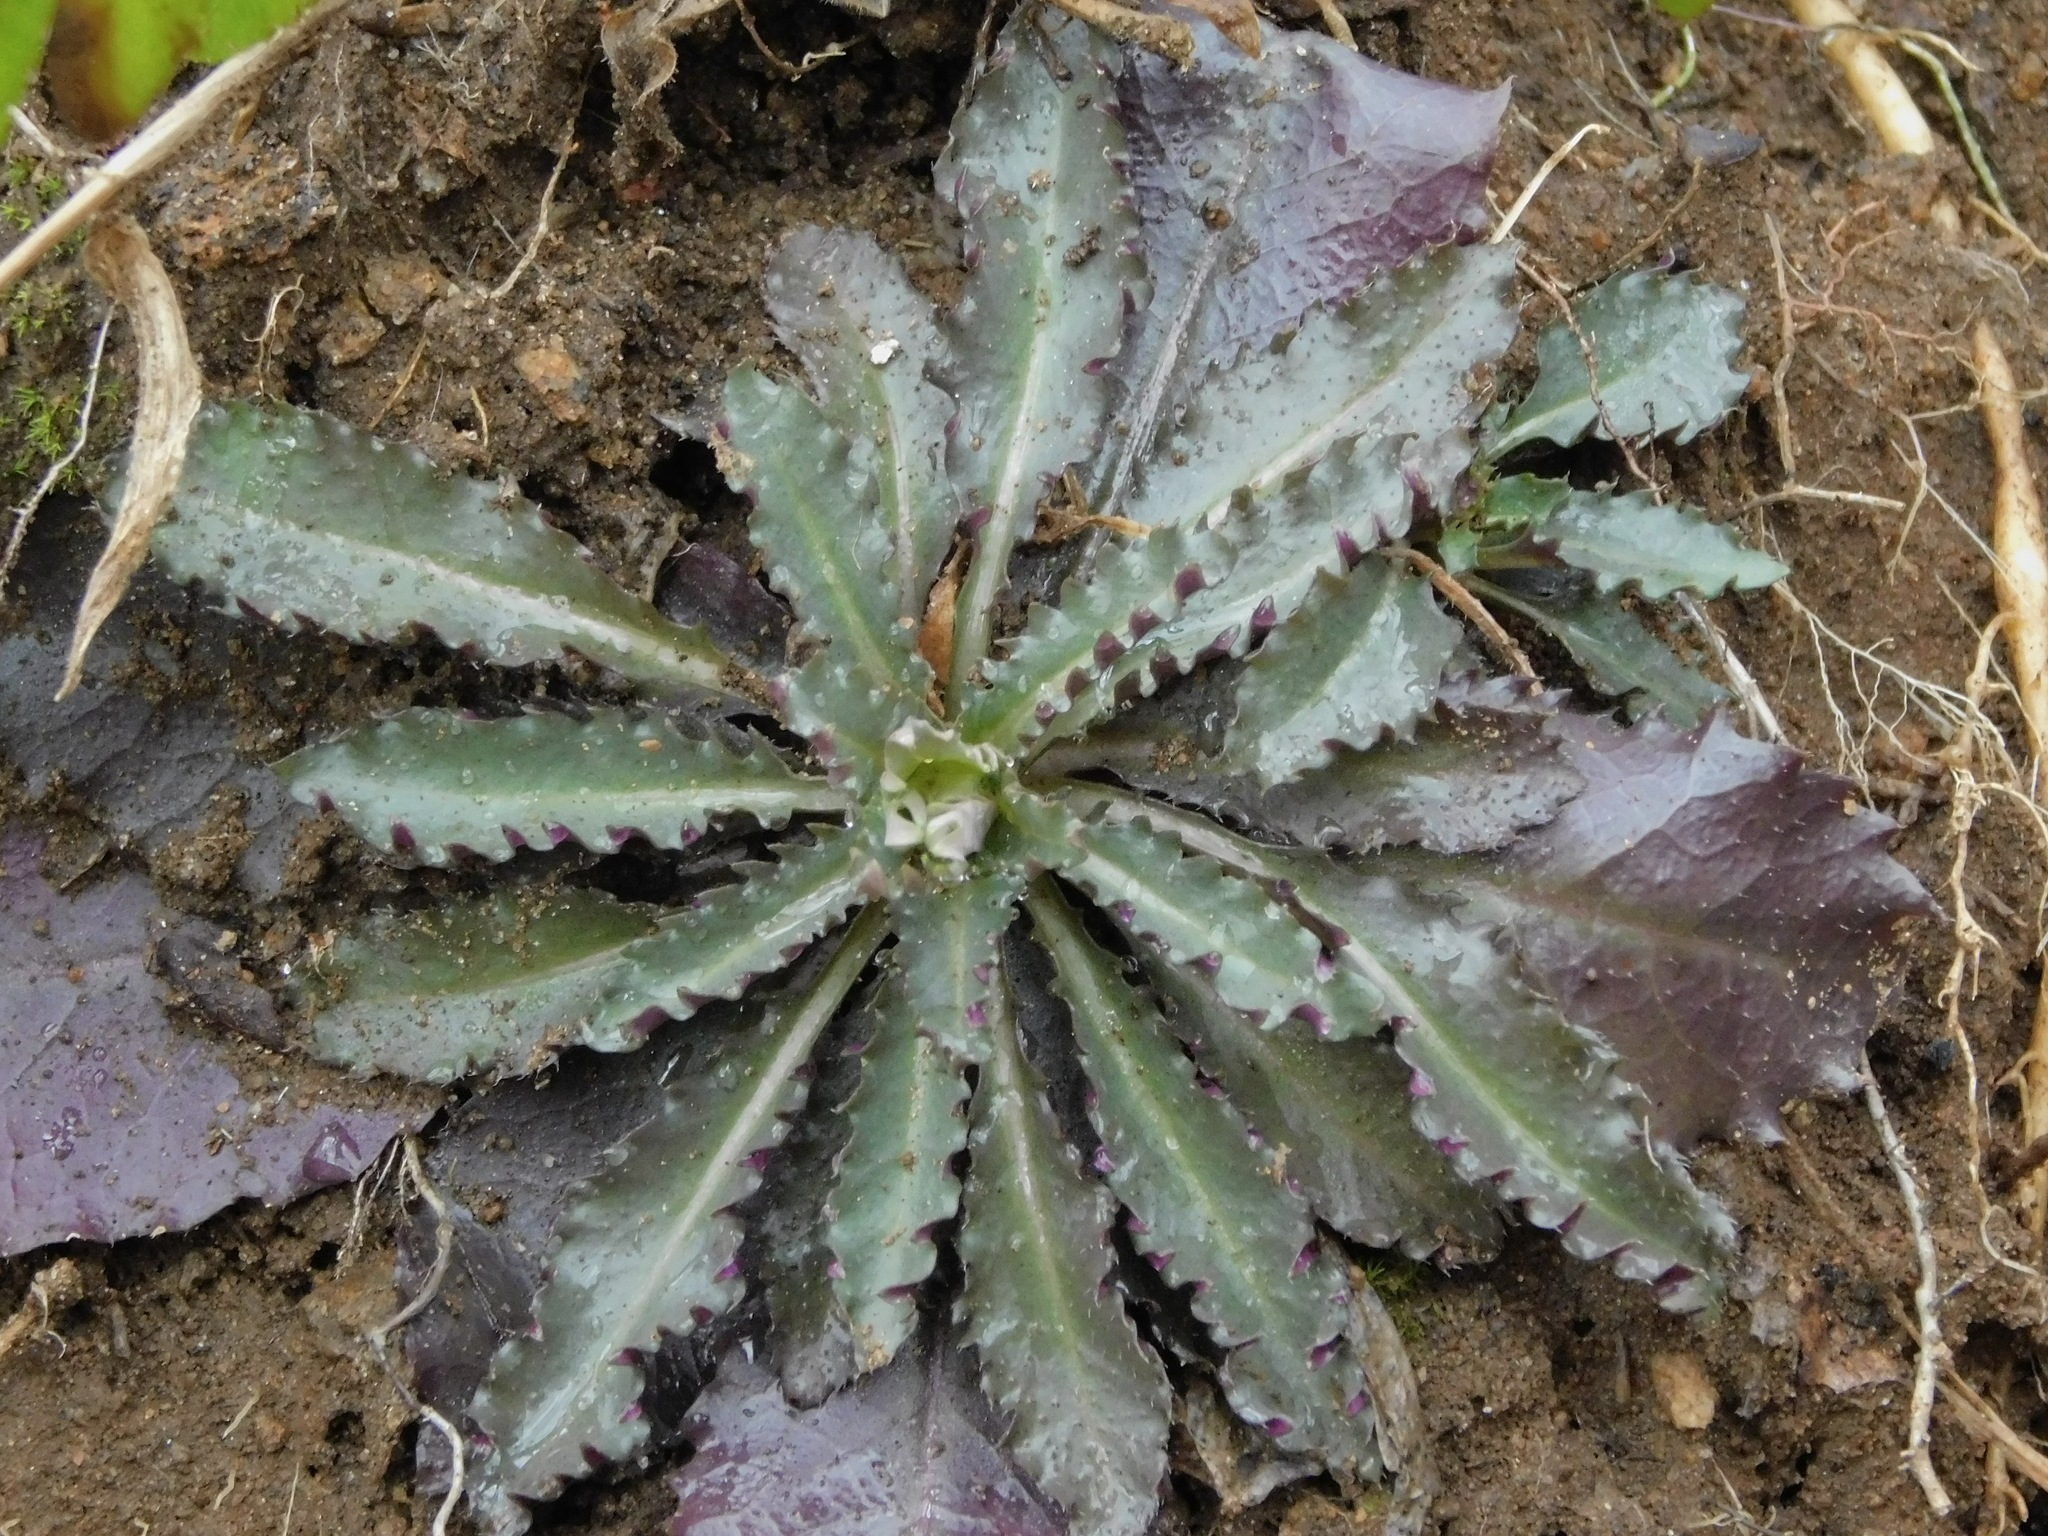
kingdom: Plantae
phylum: Tracheophyta
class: Magnoliopsida
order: Brassicales
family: Brassicaceae
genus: Borodinia
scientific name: Borodinia laevigata
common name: Smooth rockcress
